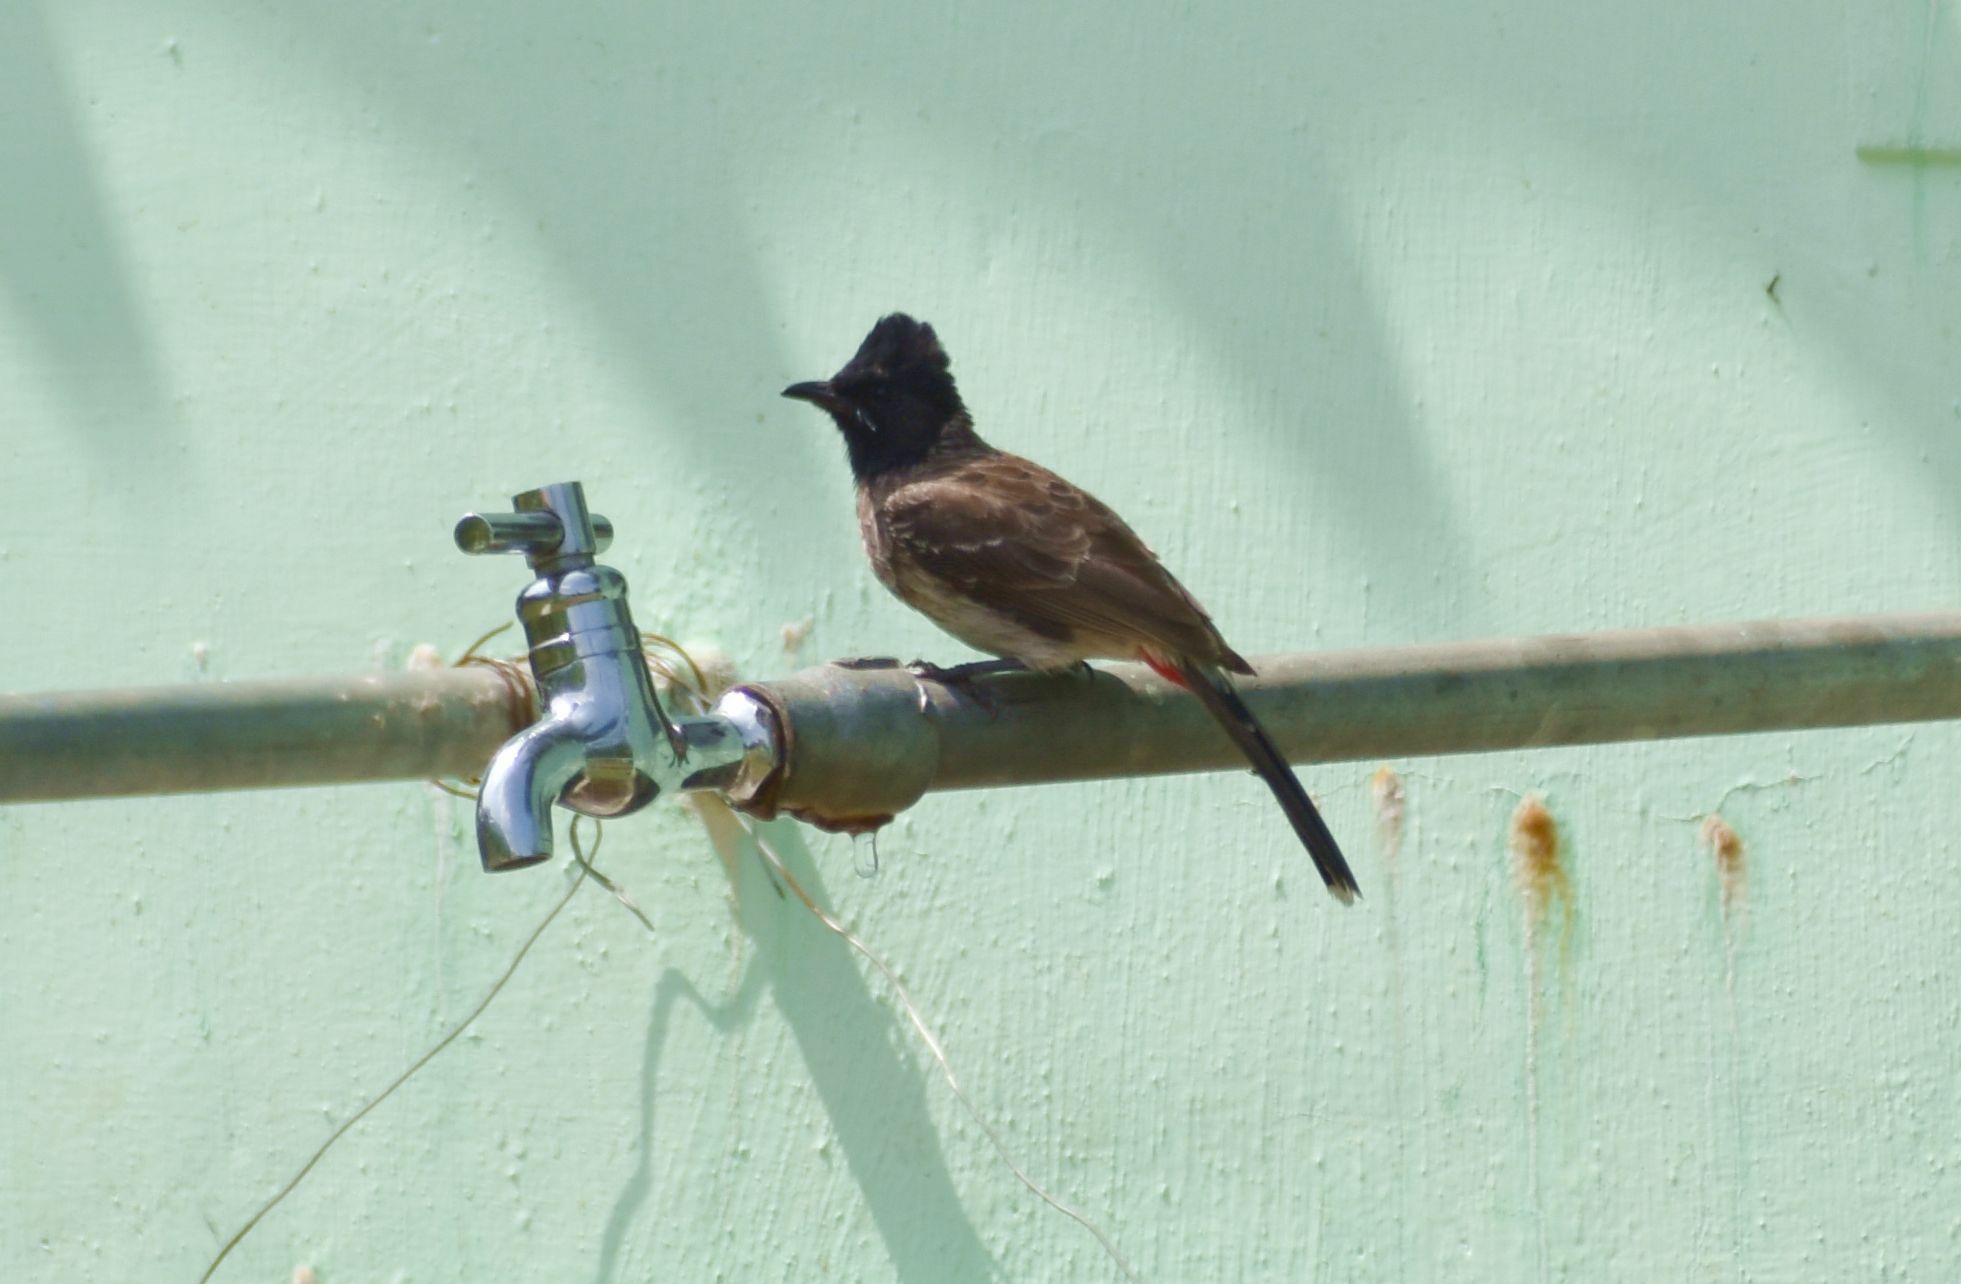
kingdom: Animalia
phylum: Chordata
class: Aves
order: Passeriformes
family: Pycnonotidae
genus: Pycnonotus
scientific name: Pycnonotus cafer
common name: Red-vented bulbul
